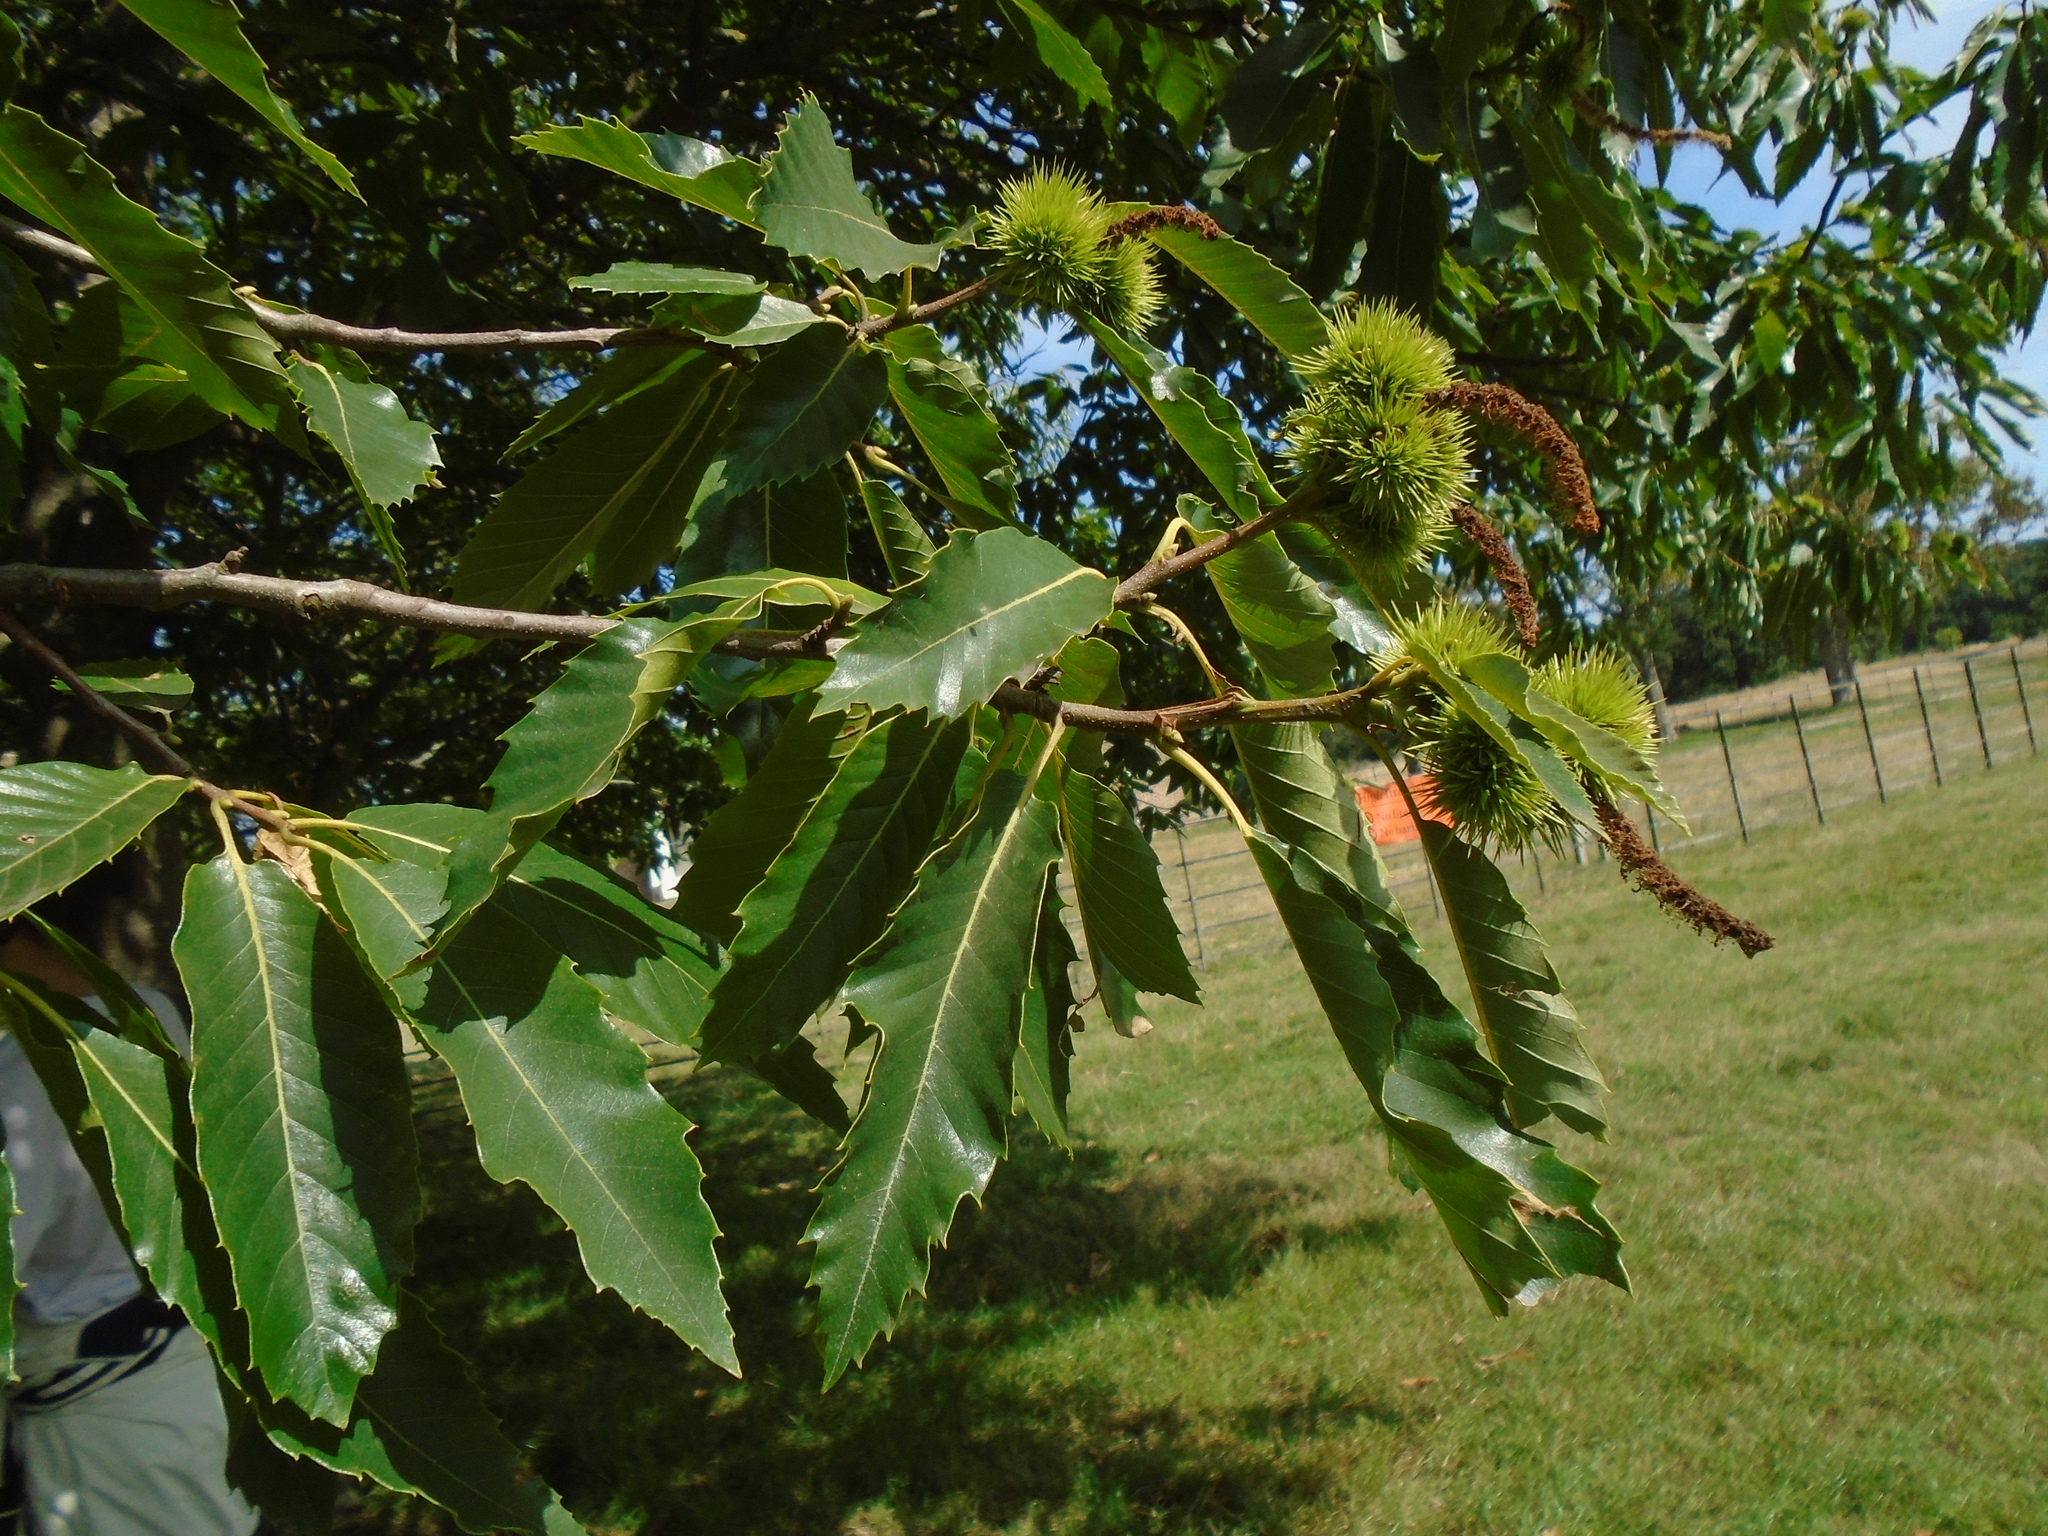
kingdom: Plantae
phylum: Tracheophyta
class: Magnoliopsida
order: Fagales
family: Fagaceae
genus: Castanea
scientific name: Castanea sativa
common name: Sweet chestnut
